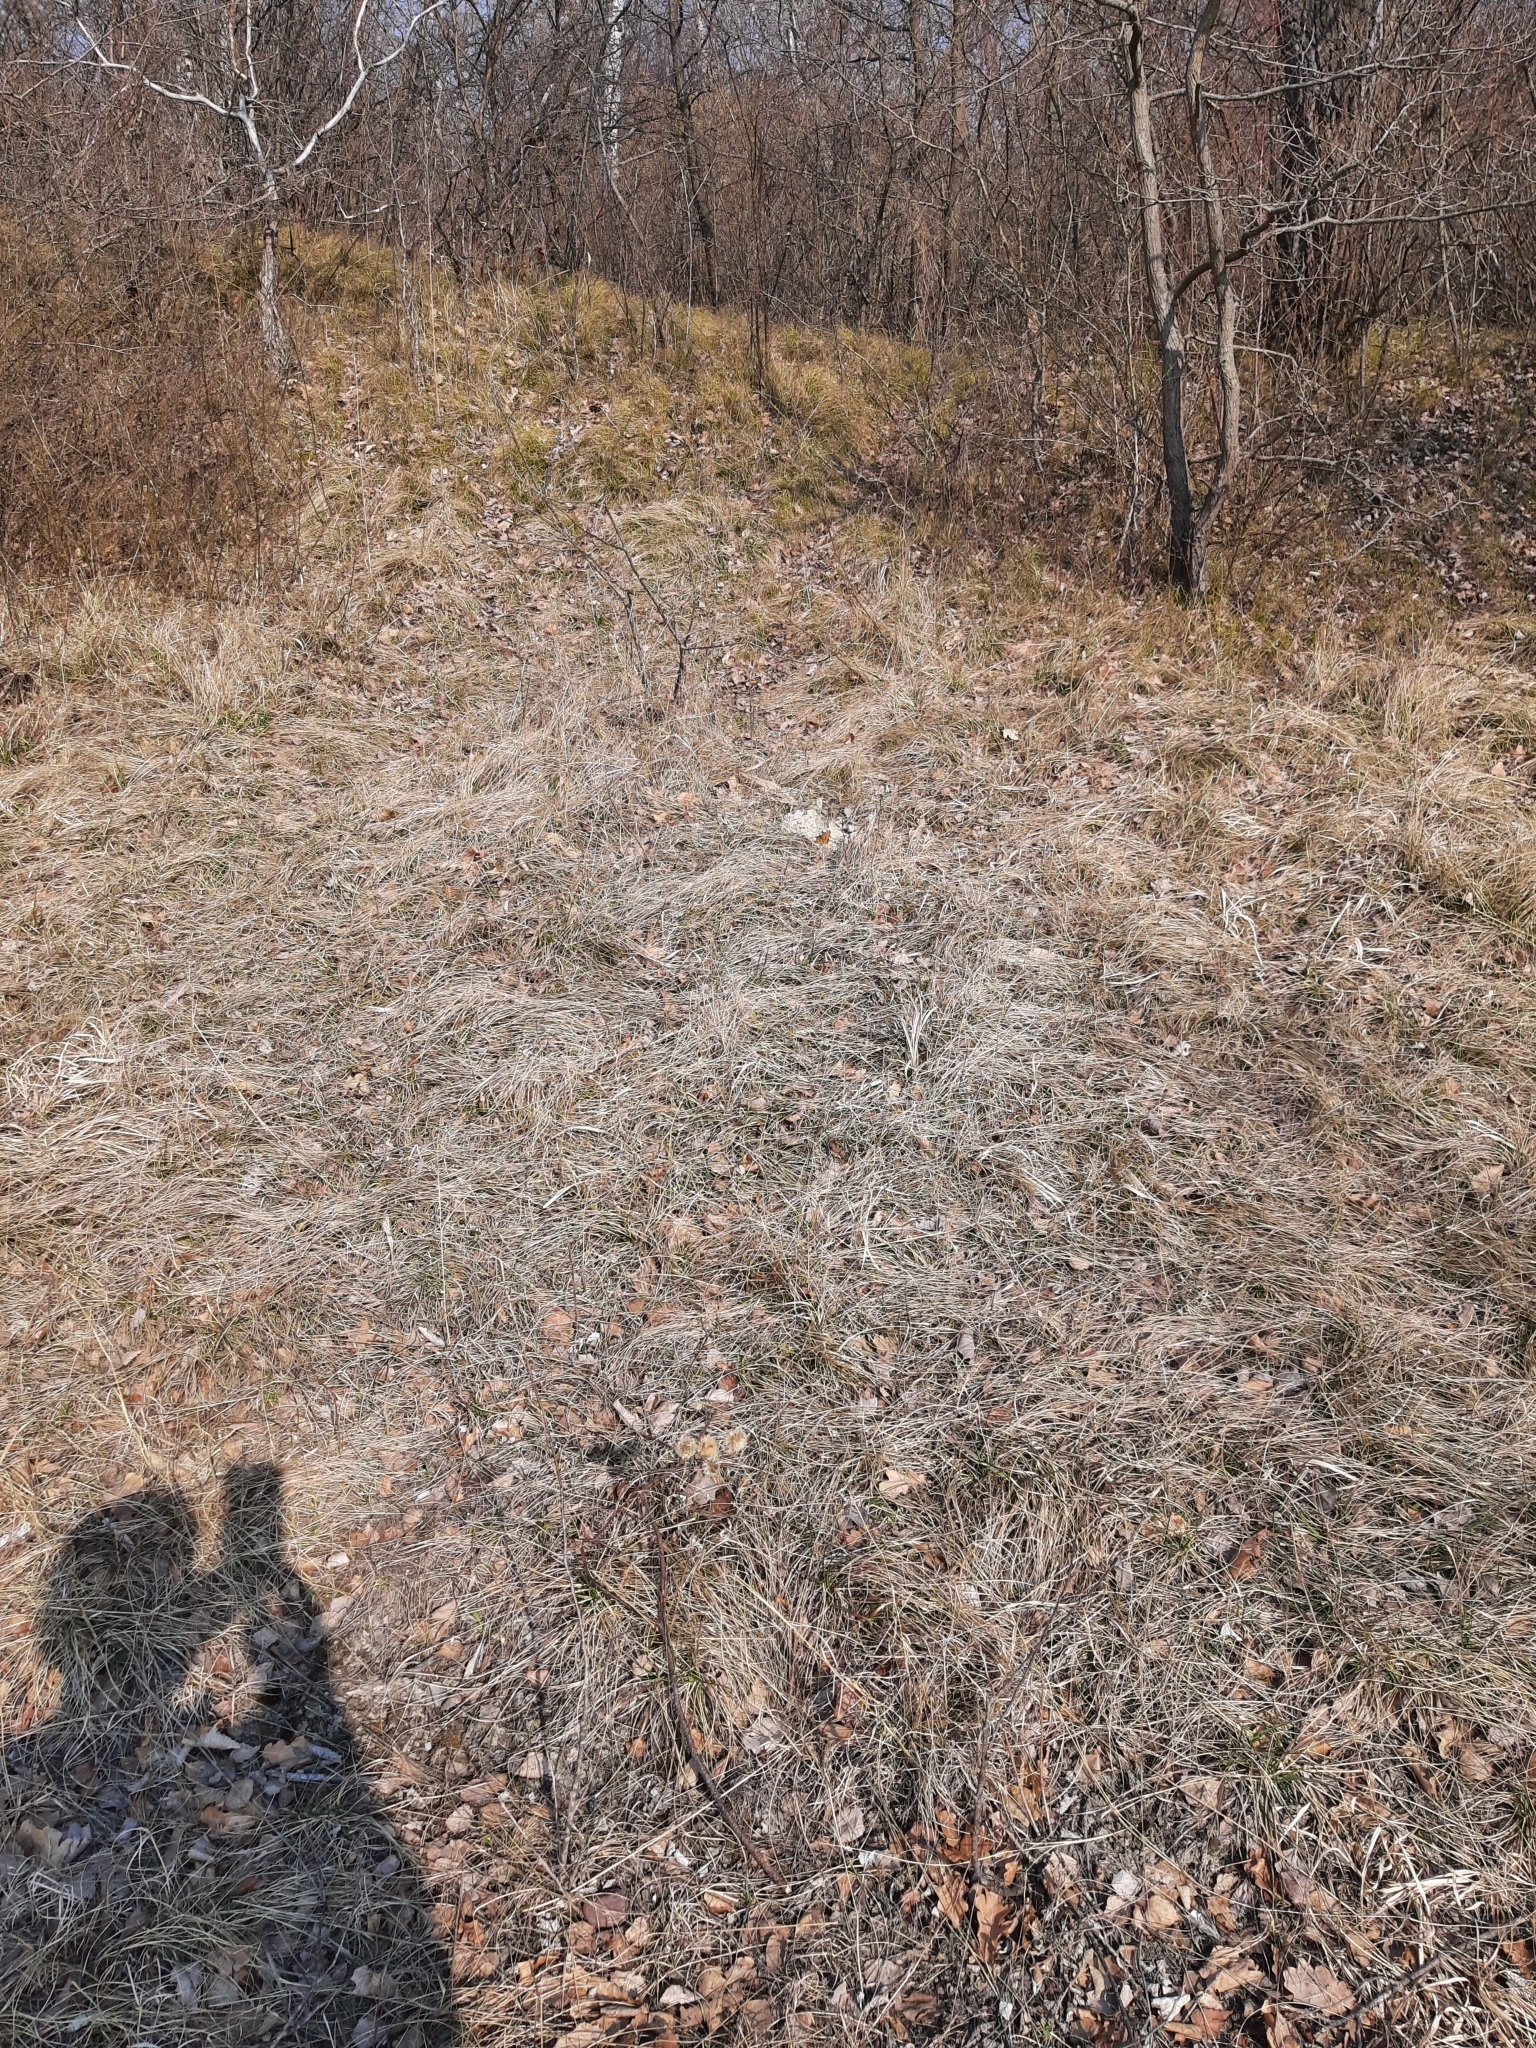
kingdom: Animalia
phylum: Arthropoda
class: Insecta
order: Lepidoptera
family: Nymphalidae
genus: Nymphalis
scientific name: Nymphalis polychloros
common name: Large tortoiseshell
